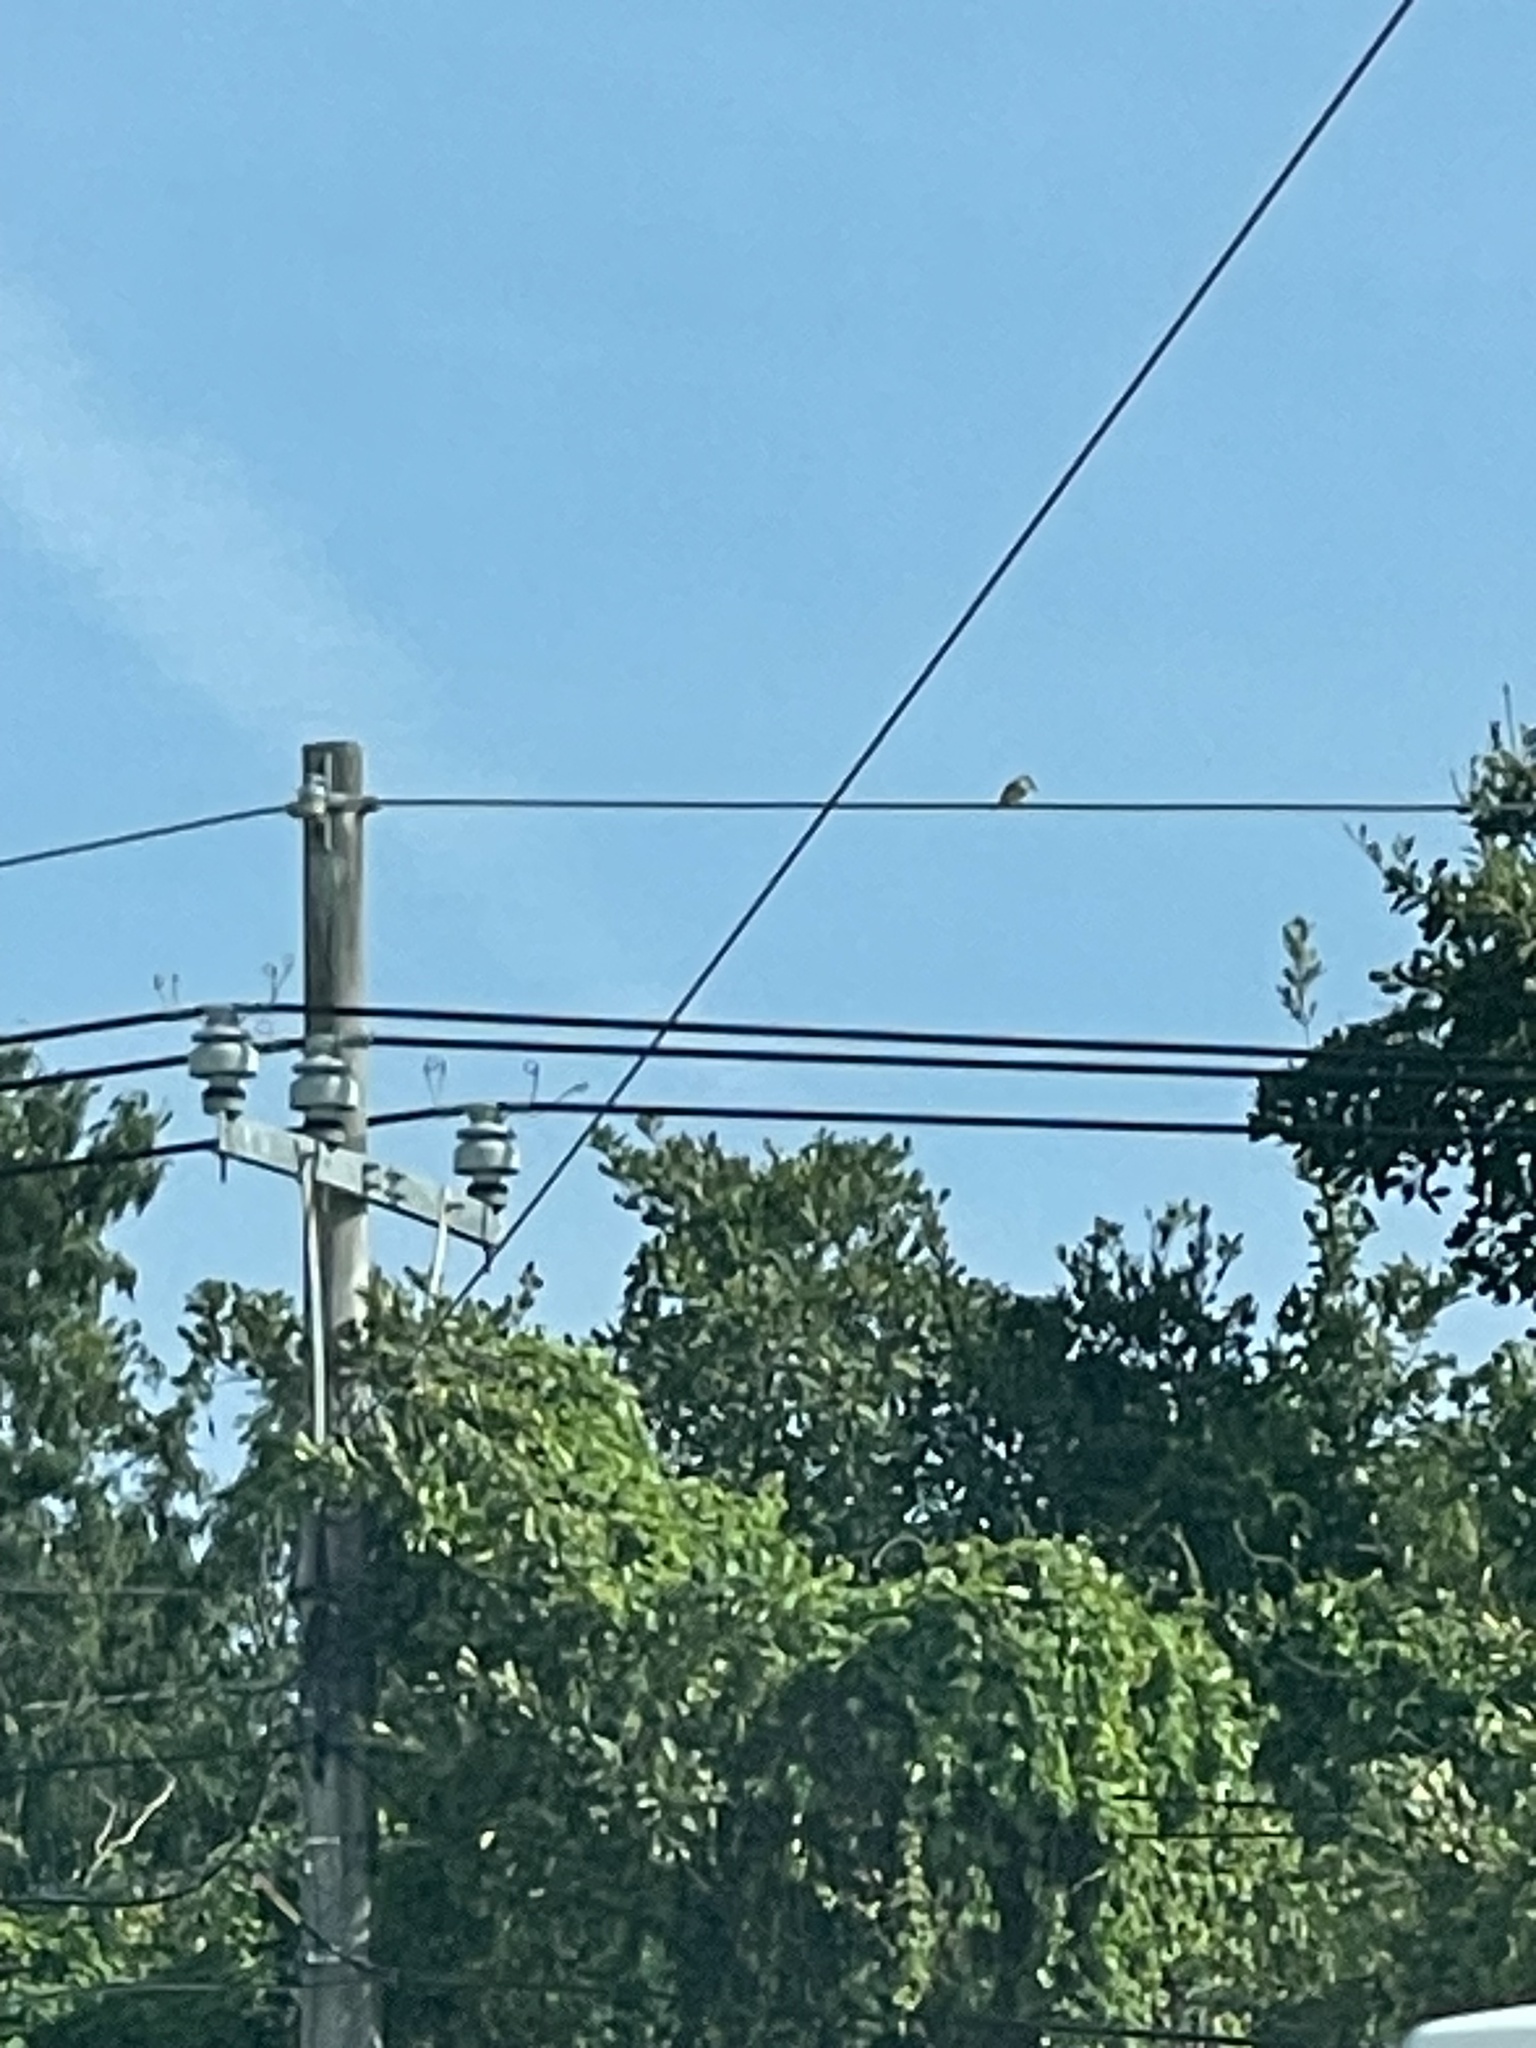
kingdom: Animalia
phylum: Chordata
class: Aves
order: Passeriformes
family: Tyrannidae
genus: Tyrannus
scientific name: Tyrannus dominicensis
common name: Gray kingbird
